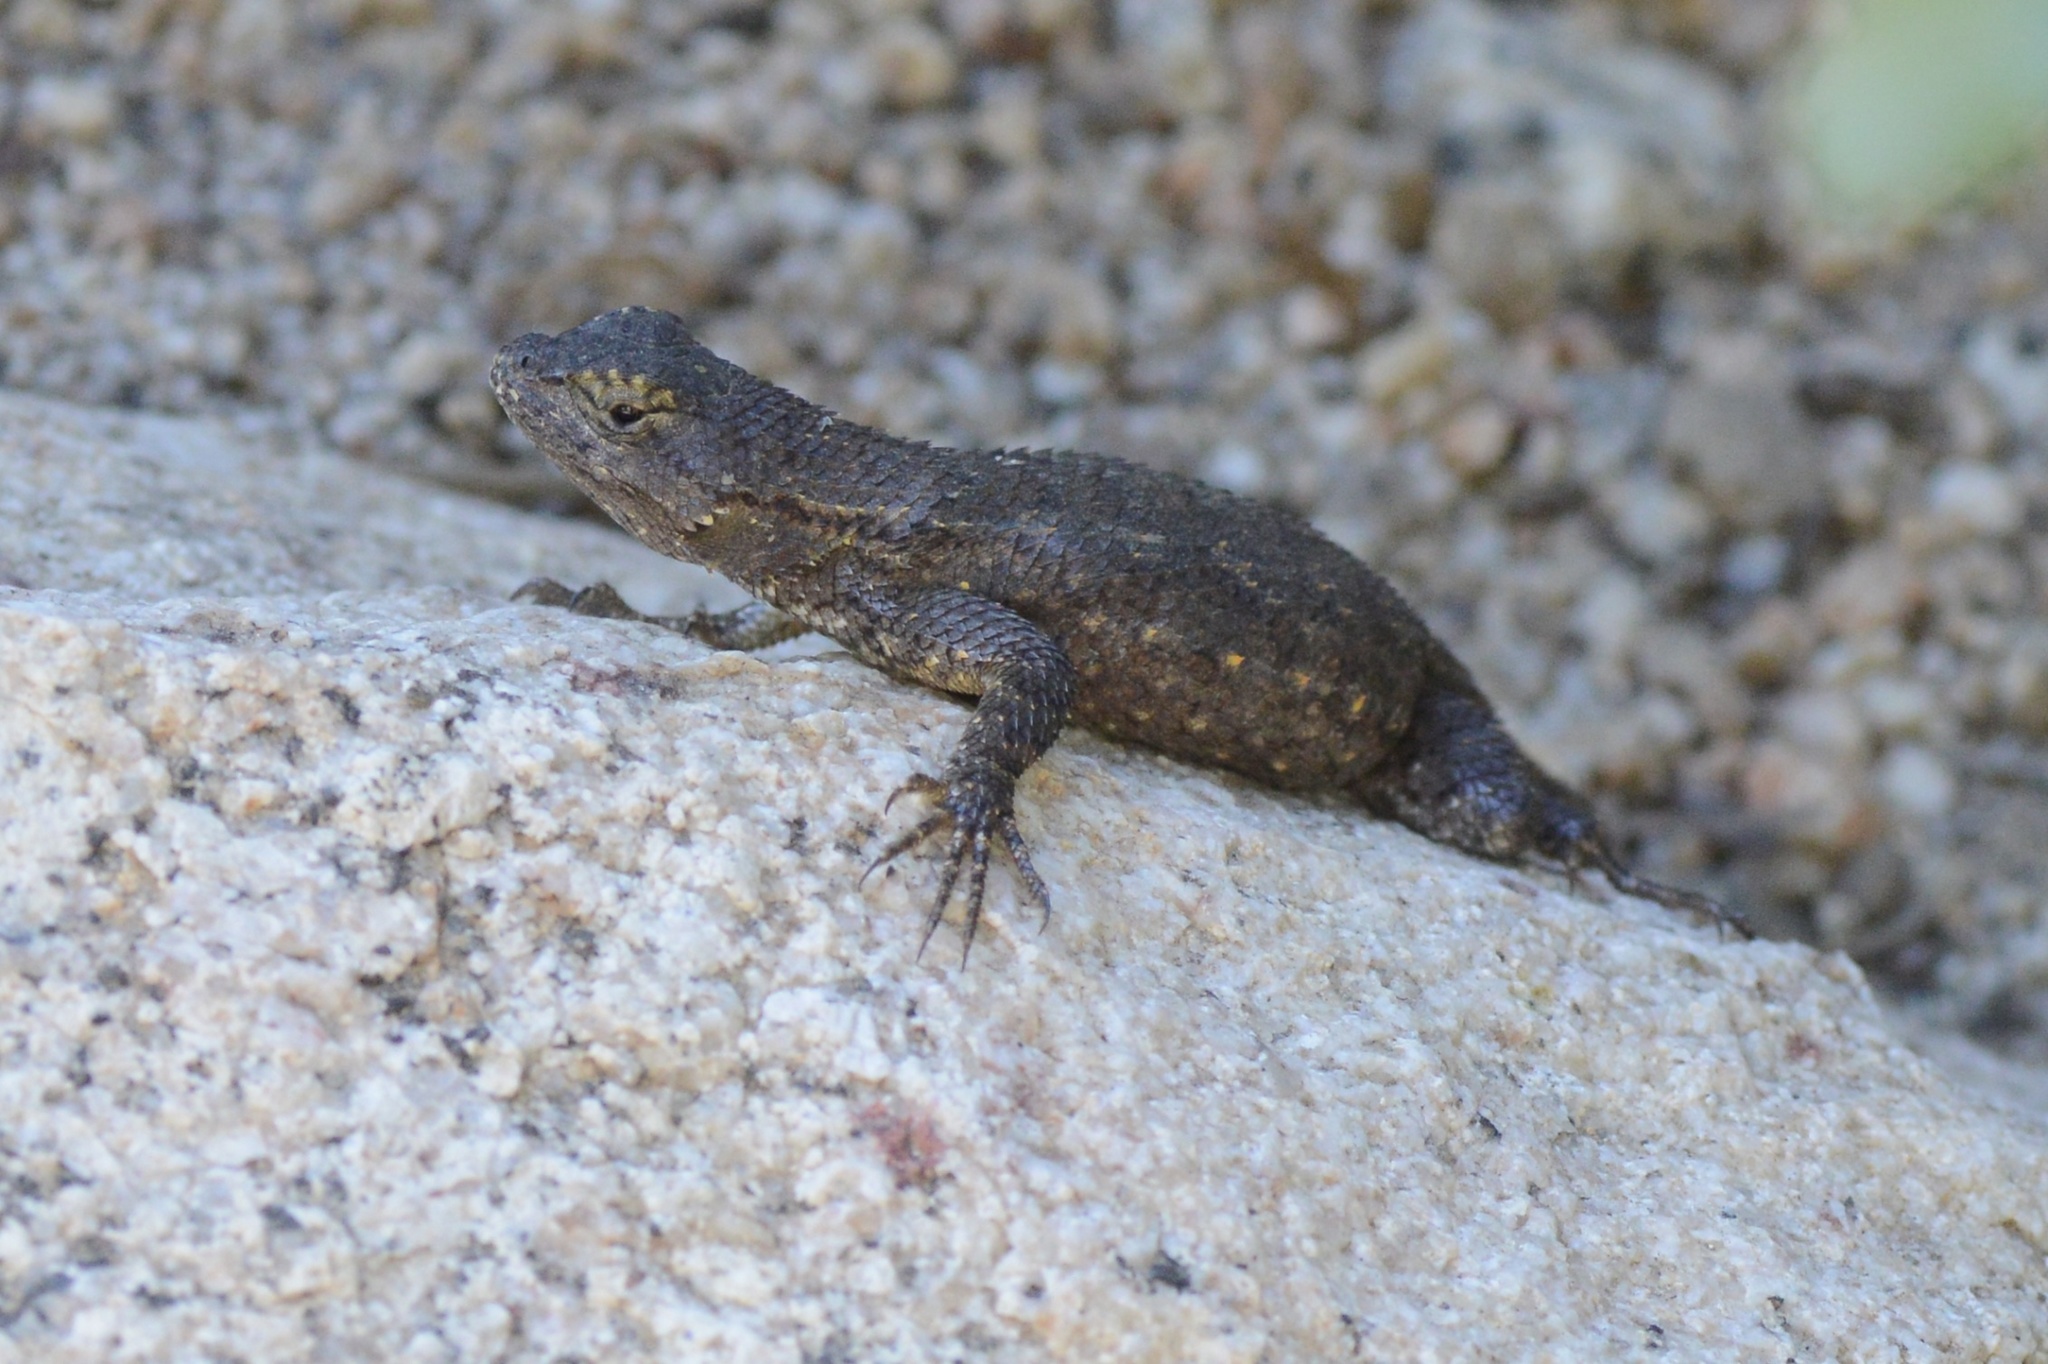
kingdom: Animalia
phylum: Chordata
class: Squamata
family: Phrynosomatidae
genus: Sceloporus
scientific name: Sceloporus occidentalis
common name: Western fence lizard
